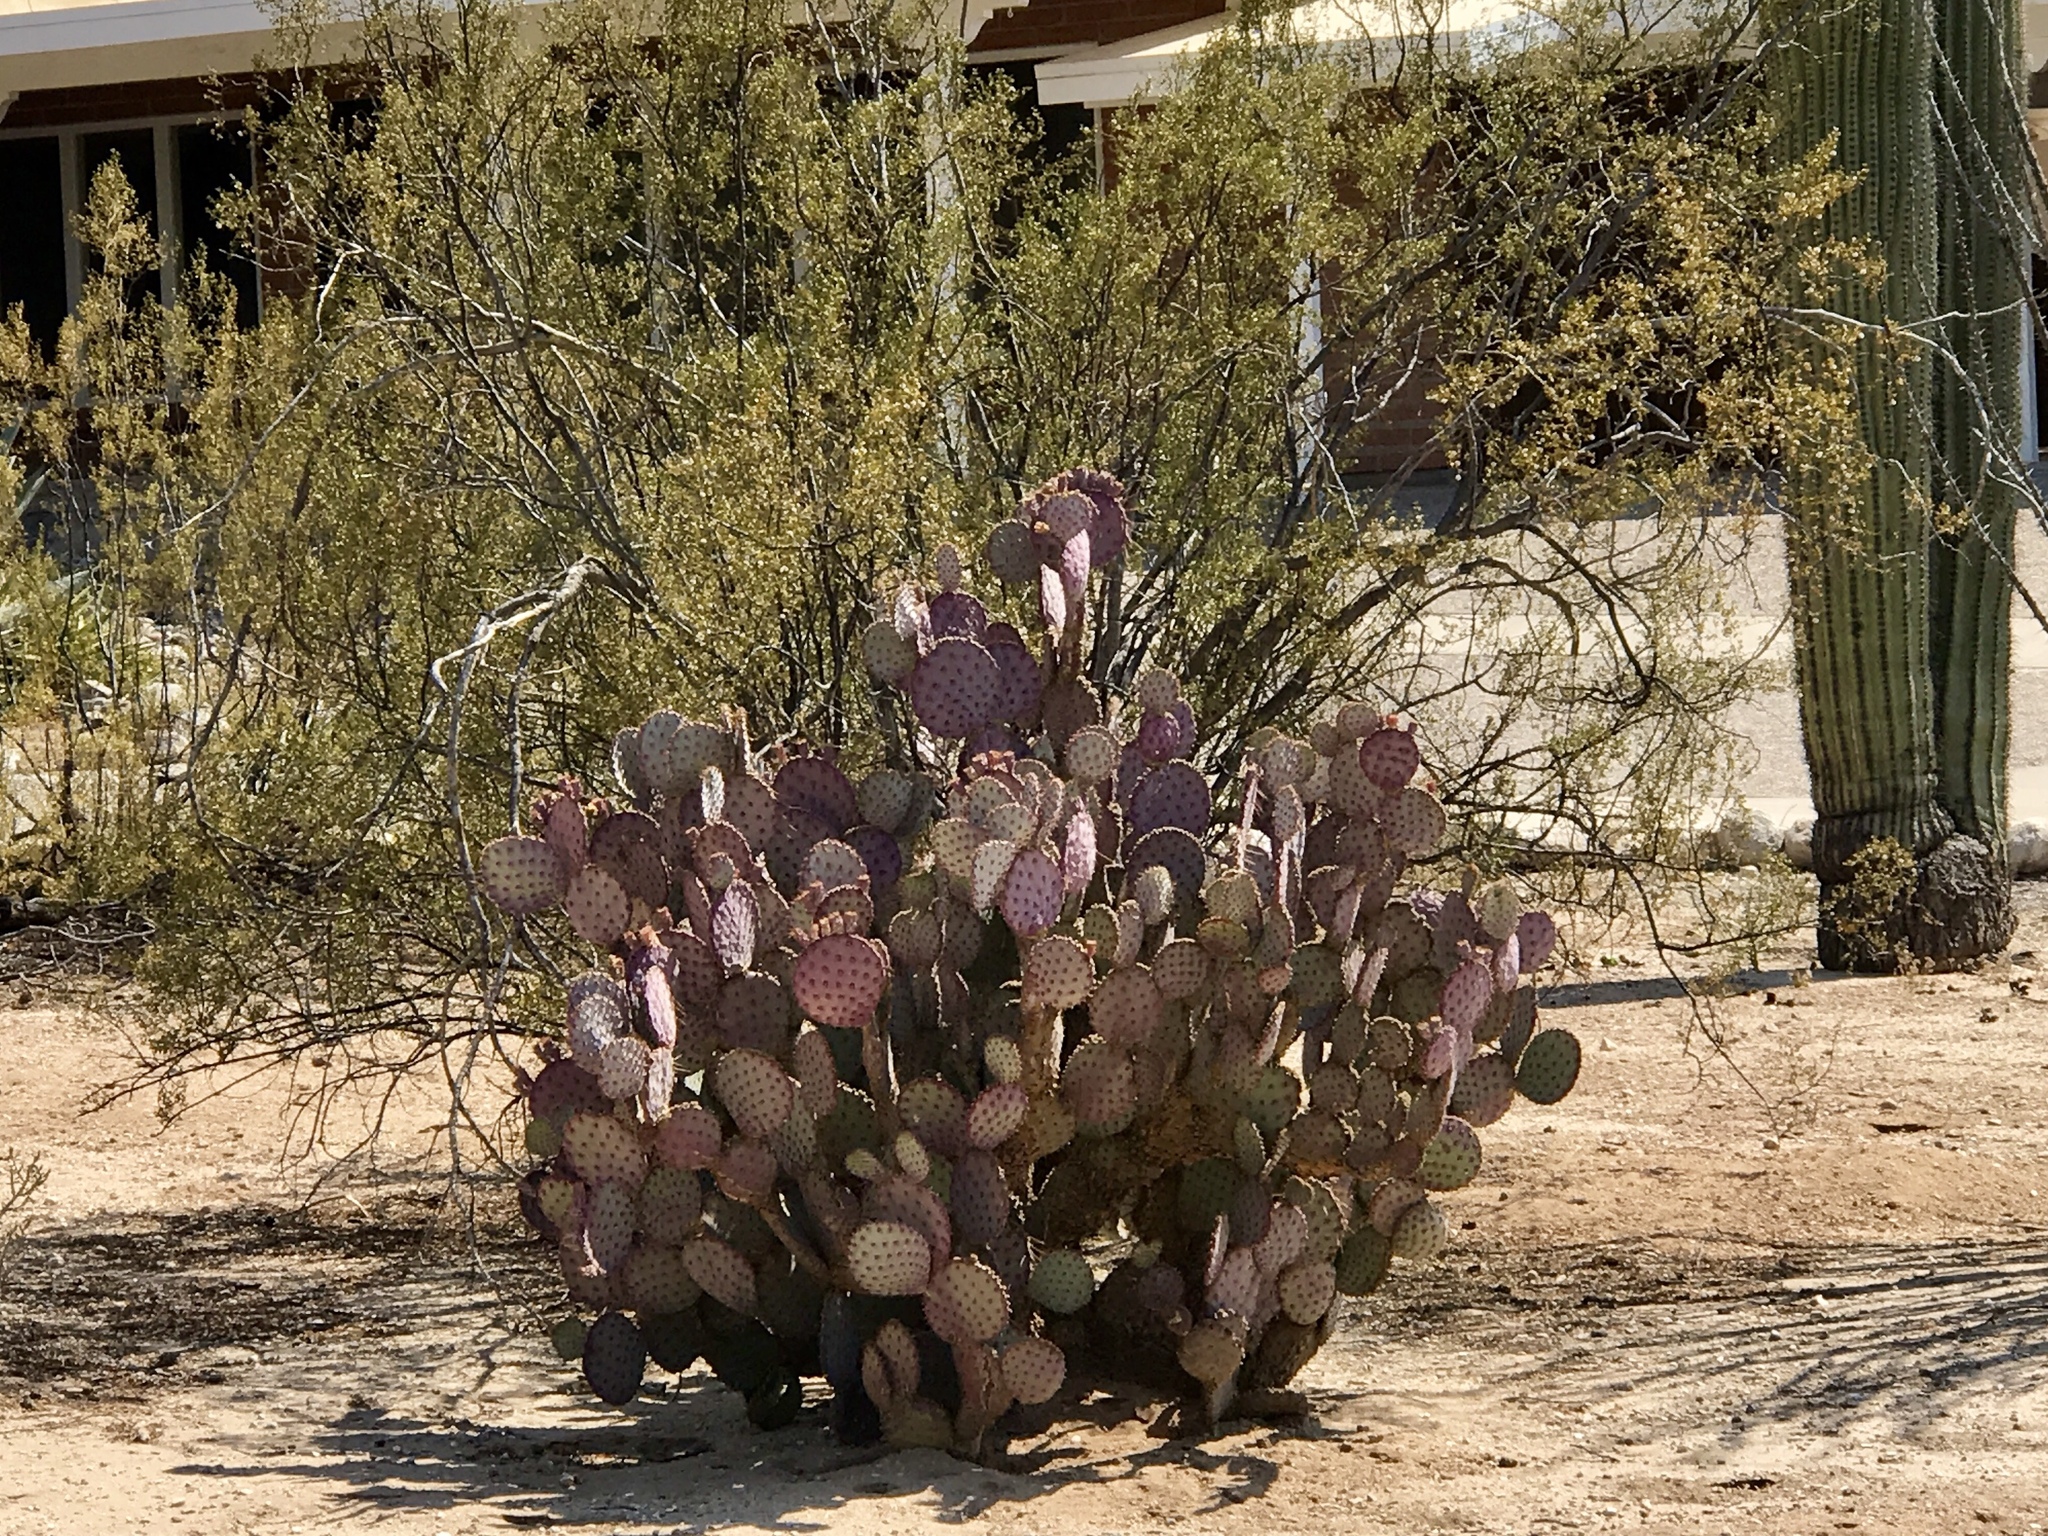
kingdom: Plantae
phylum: Tracheophyta
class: Magnoliopsida
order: Caryophyllales
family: Cactaceae
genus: Opuntia
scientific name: Opuntia gosseliniana
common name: Violet prickly-pear
